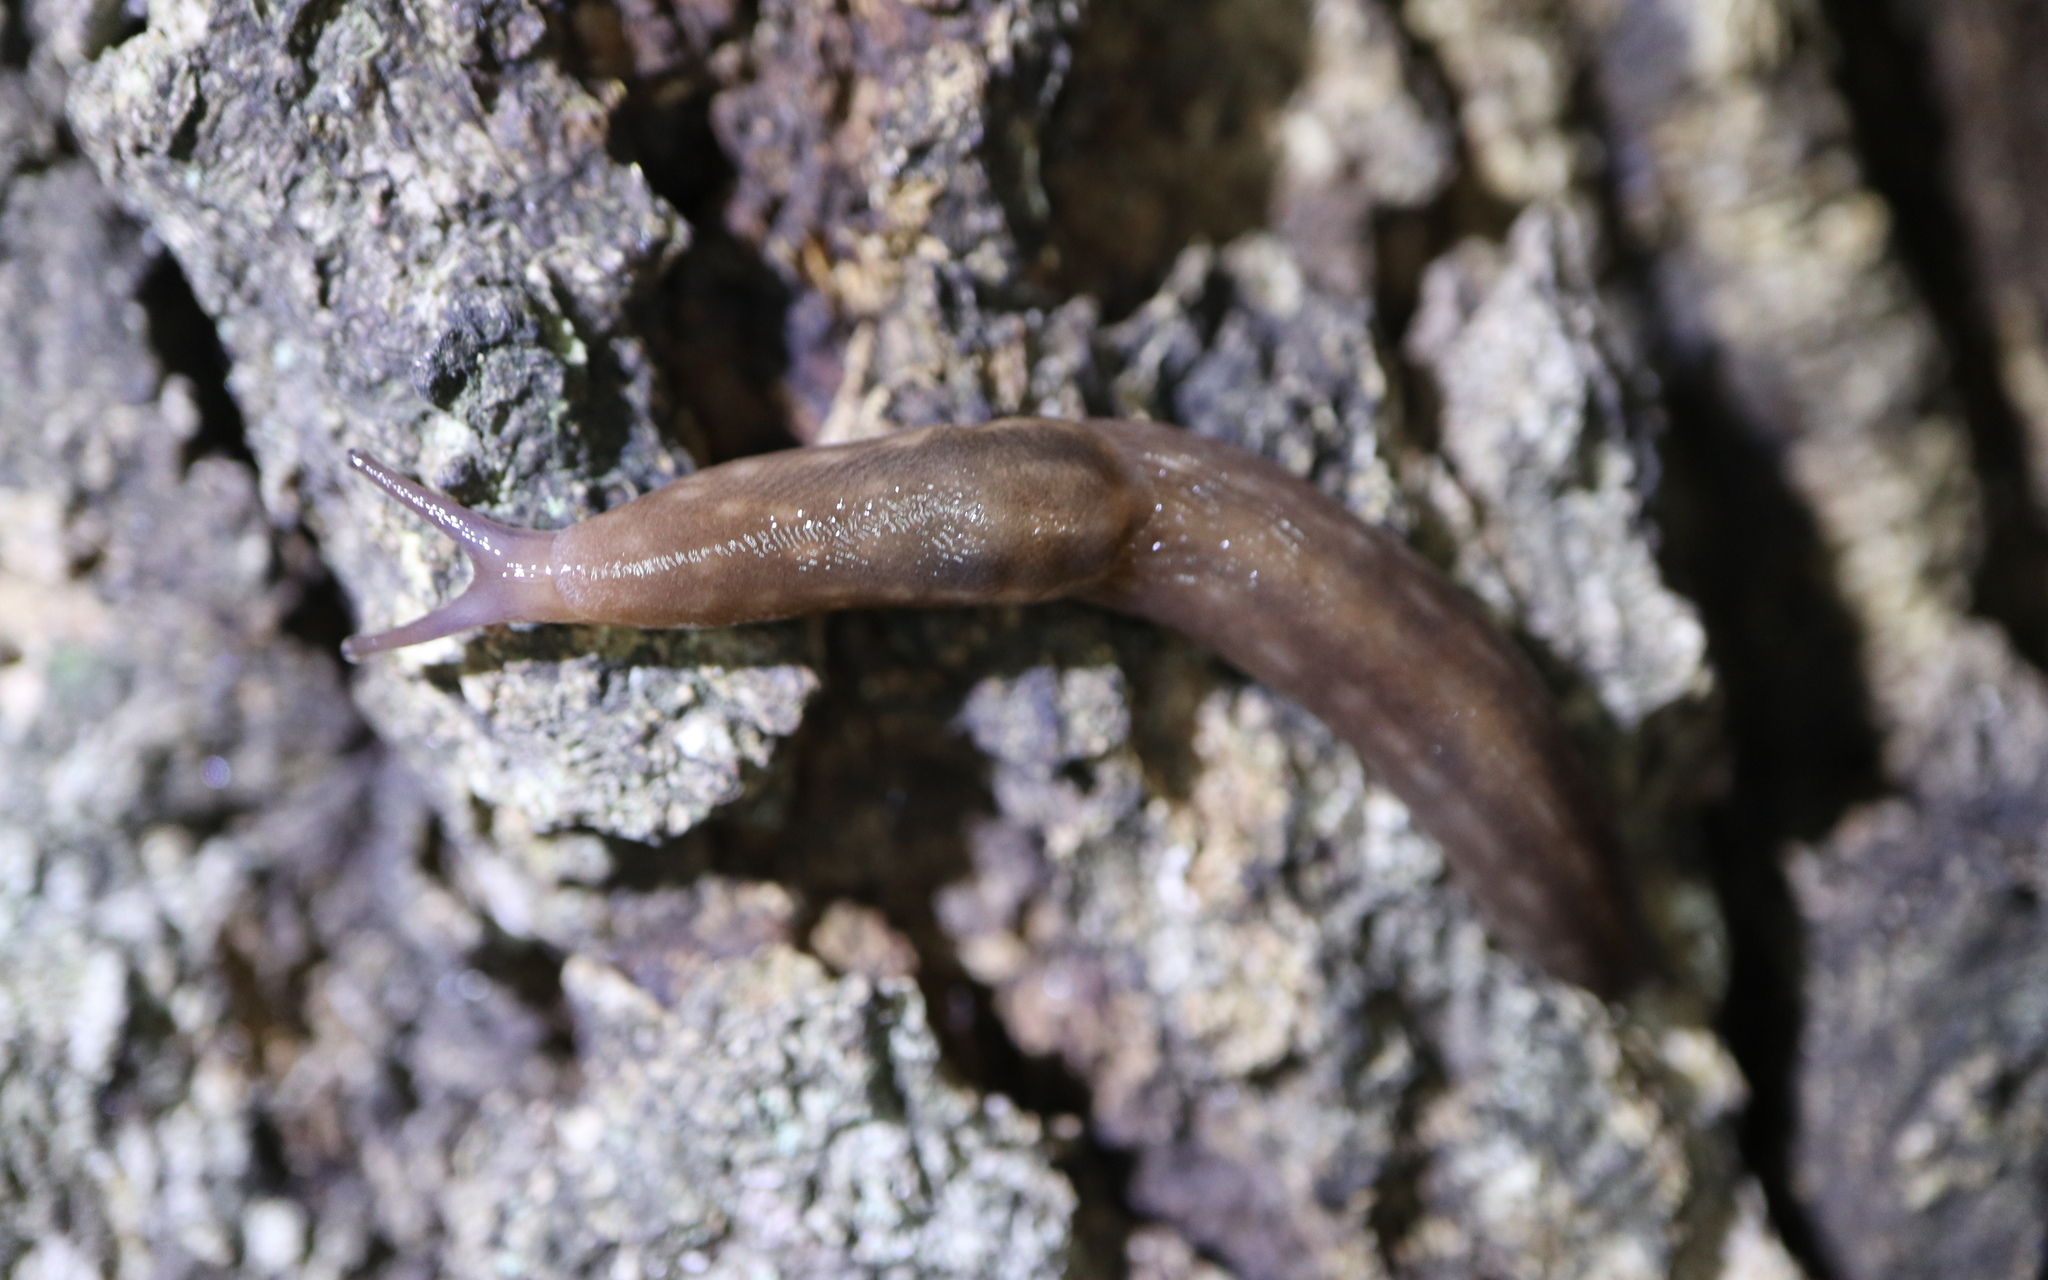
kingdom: Animalia
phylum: Mollusca
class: Gastropoda
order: Stylommatophora
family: Limacidae
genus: Ambigolimax
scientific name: Ambigolimax
